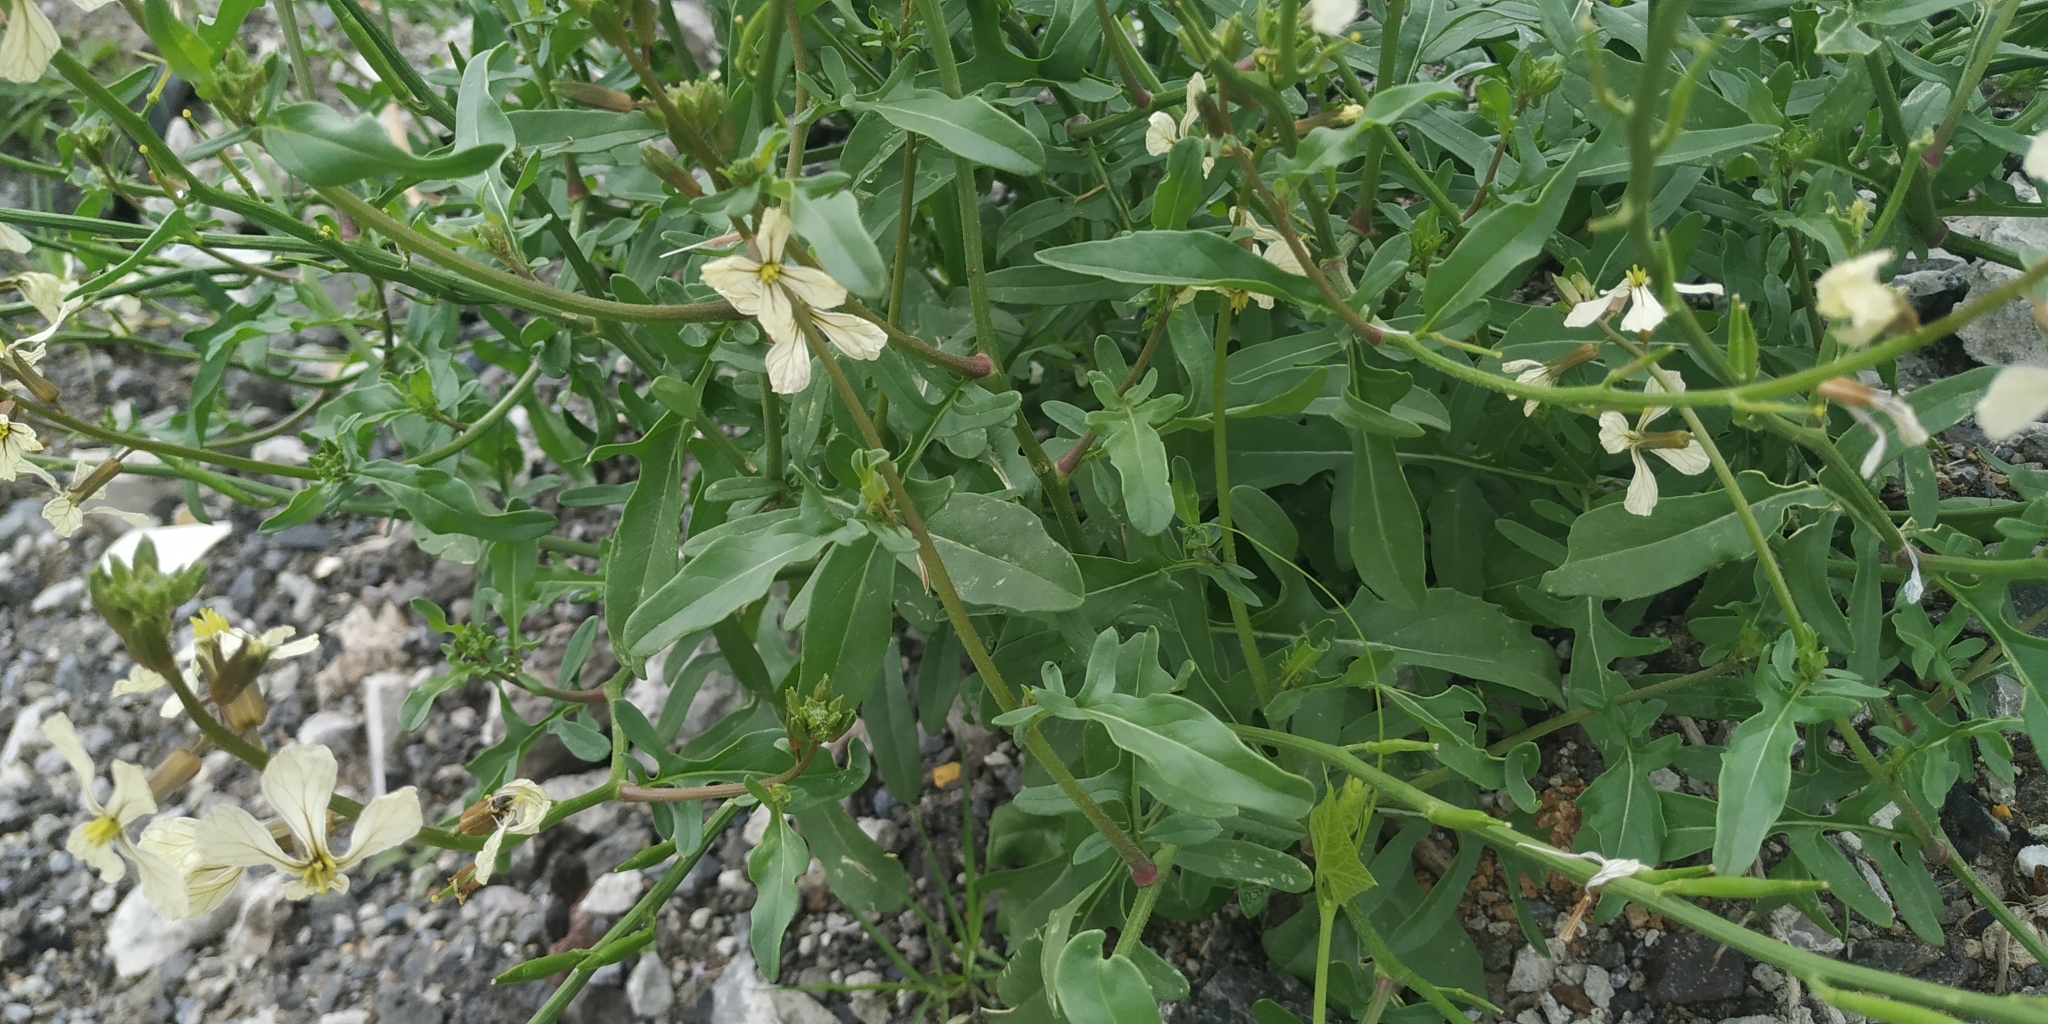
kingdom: Plantae
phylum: Tracheophyta
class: Magnoliopsida
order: Brassicales
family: Brassicaceae
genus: Eruca
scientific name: Eruca vesicaria
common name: Garden rocket
